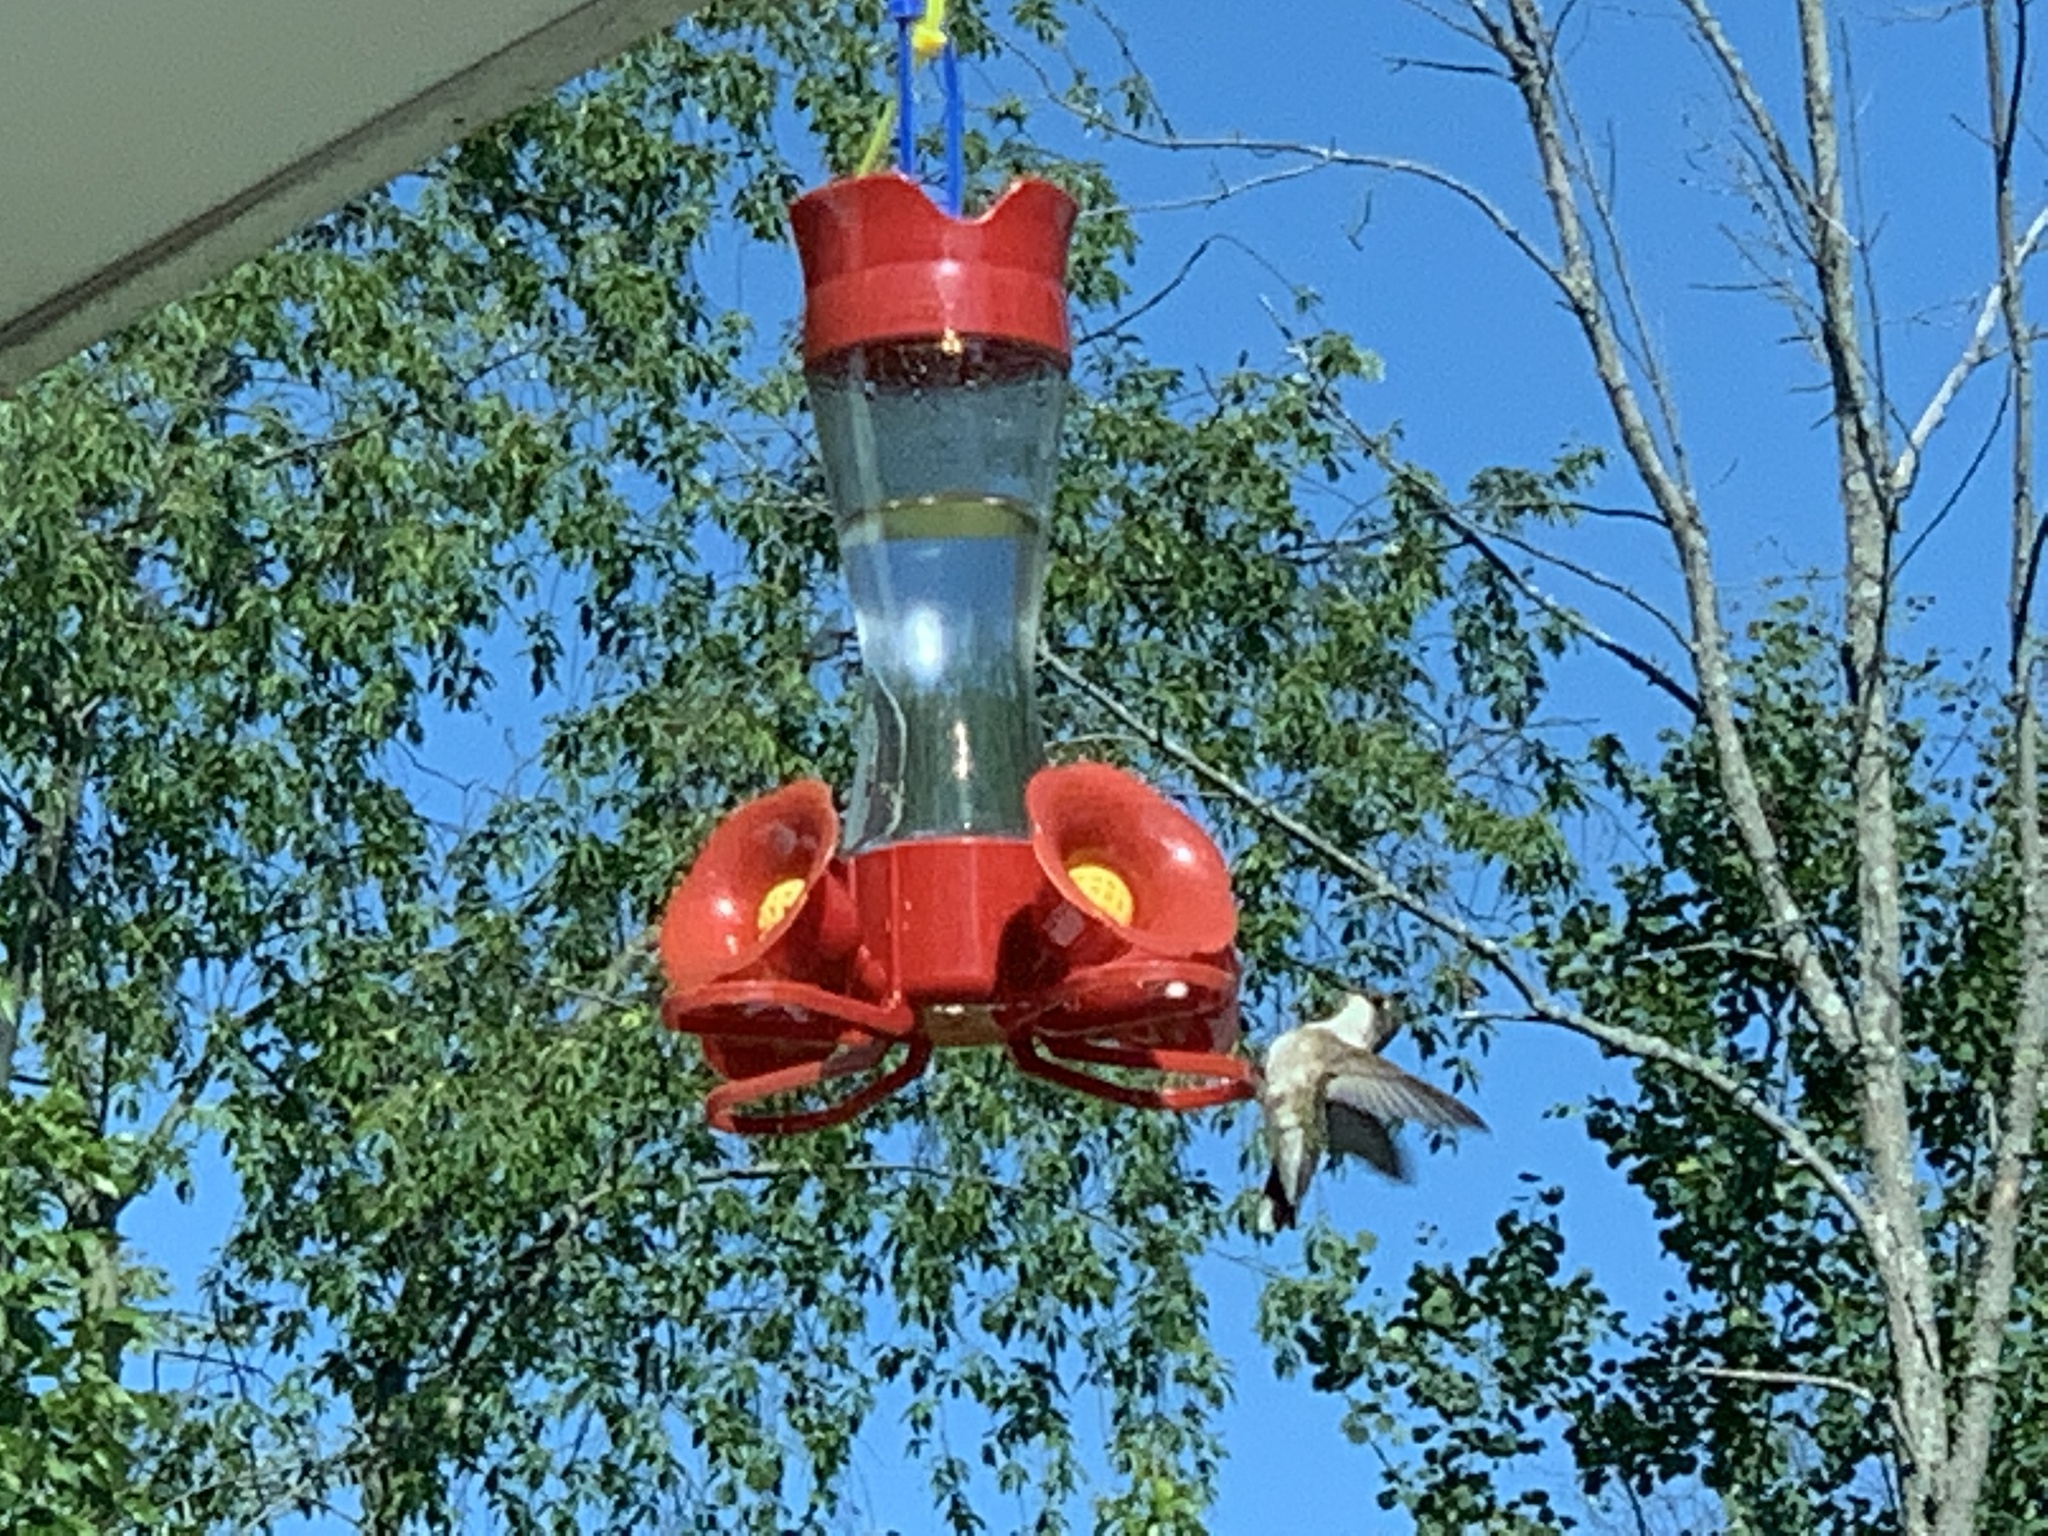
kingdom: Animalia
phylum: Chordata
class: Aves
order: Apodiformes
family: Trochilidae
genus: Archilochus
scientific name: Archilochus colubris
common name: Ruby-throated hummingbird
